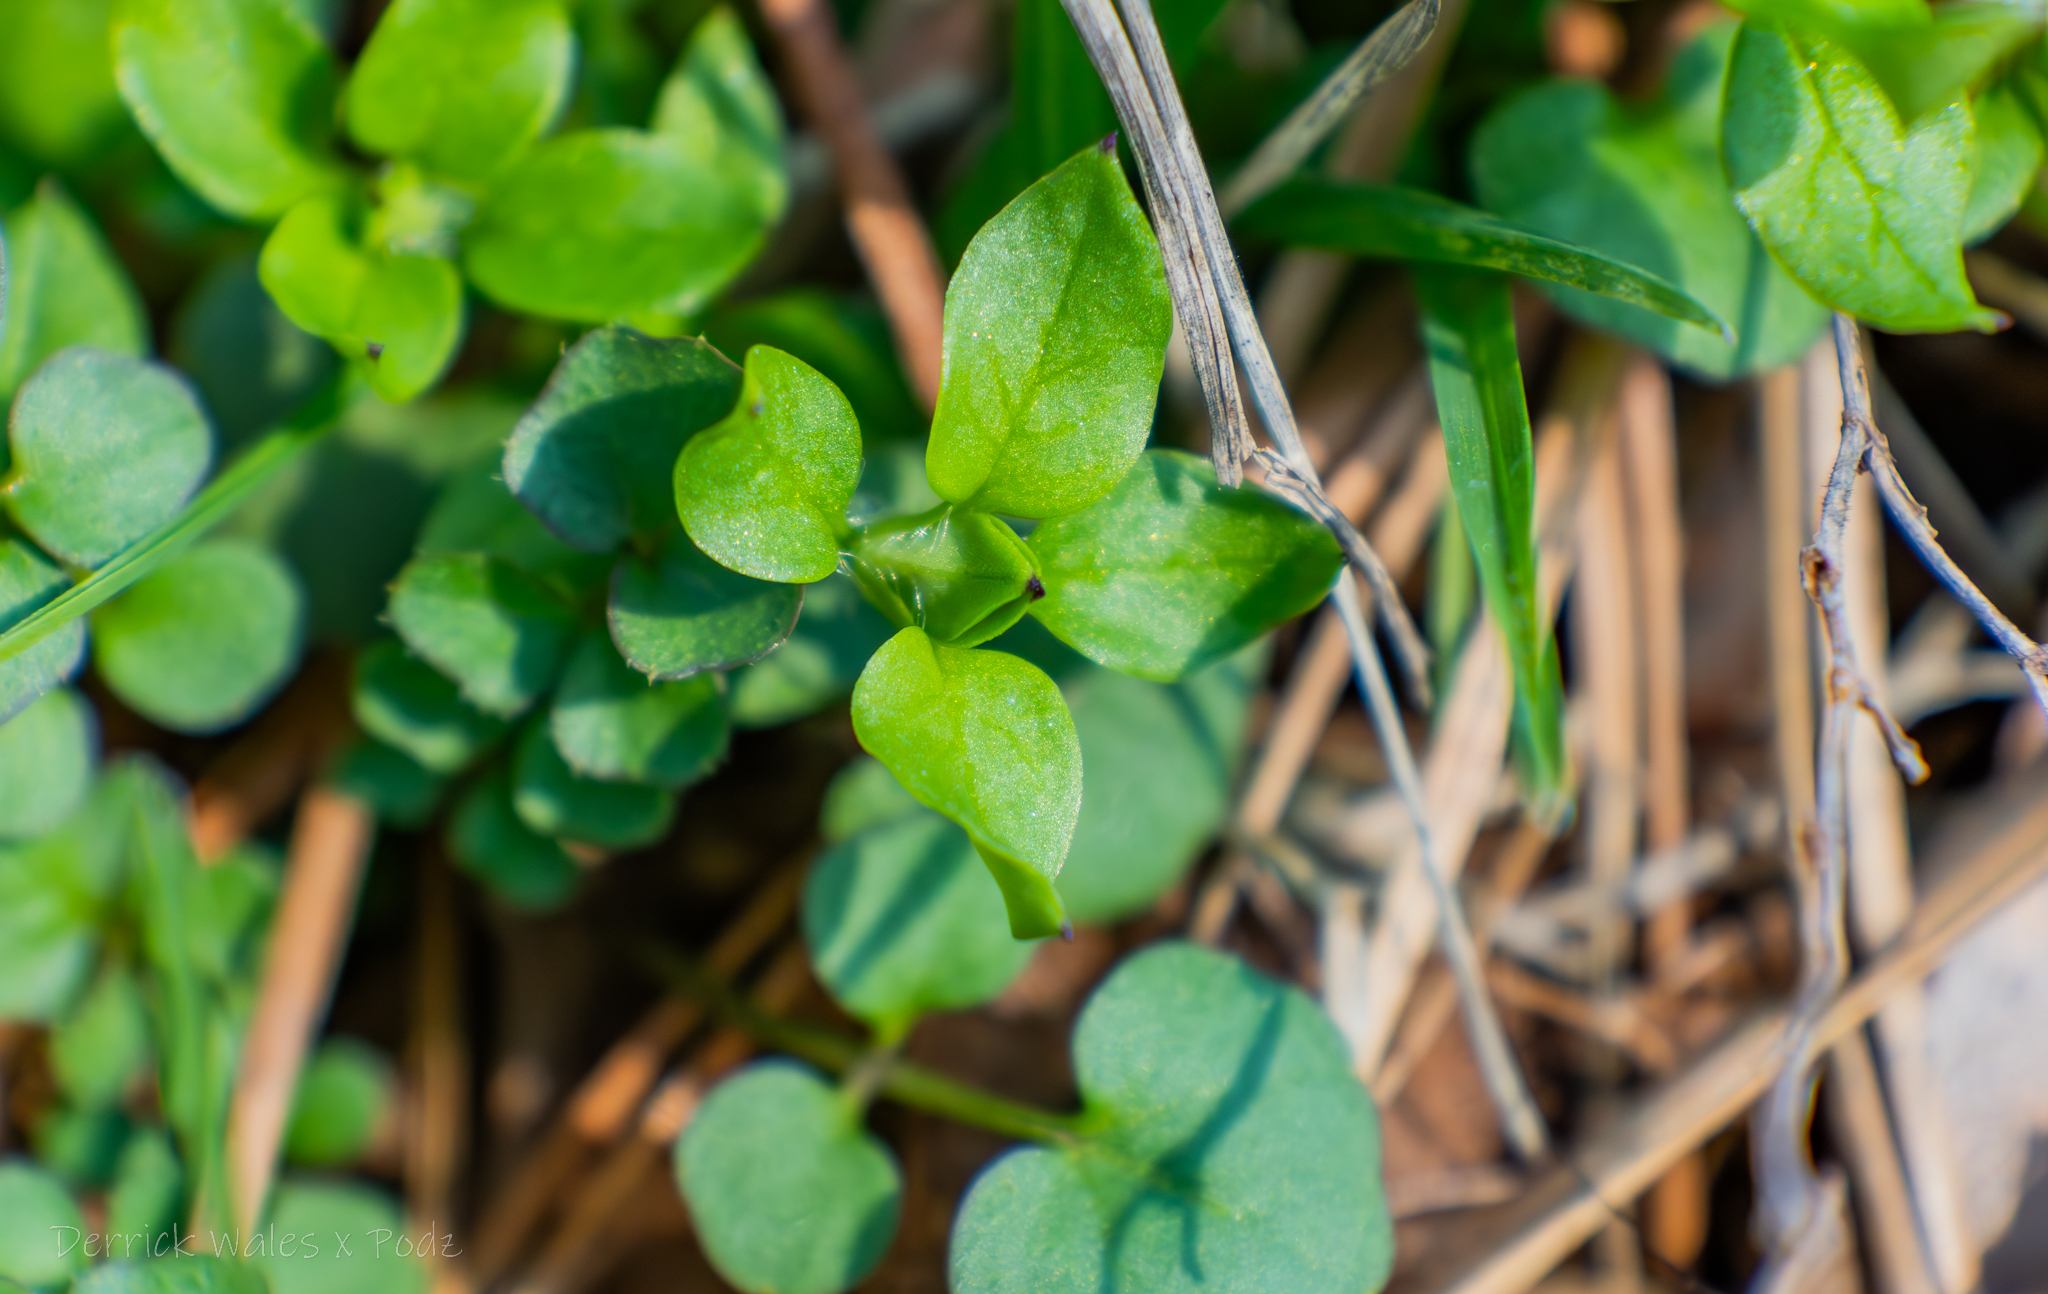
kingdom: Plantae
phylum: Tracheophyta
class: Magnoliopsida
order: Caryophyllales
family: Caryophyllaceae
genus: Stellaria
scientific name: Stellaria media
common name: Common chickweed
